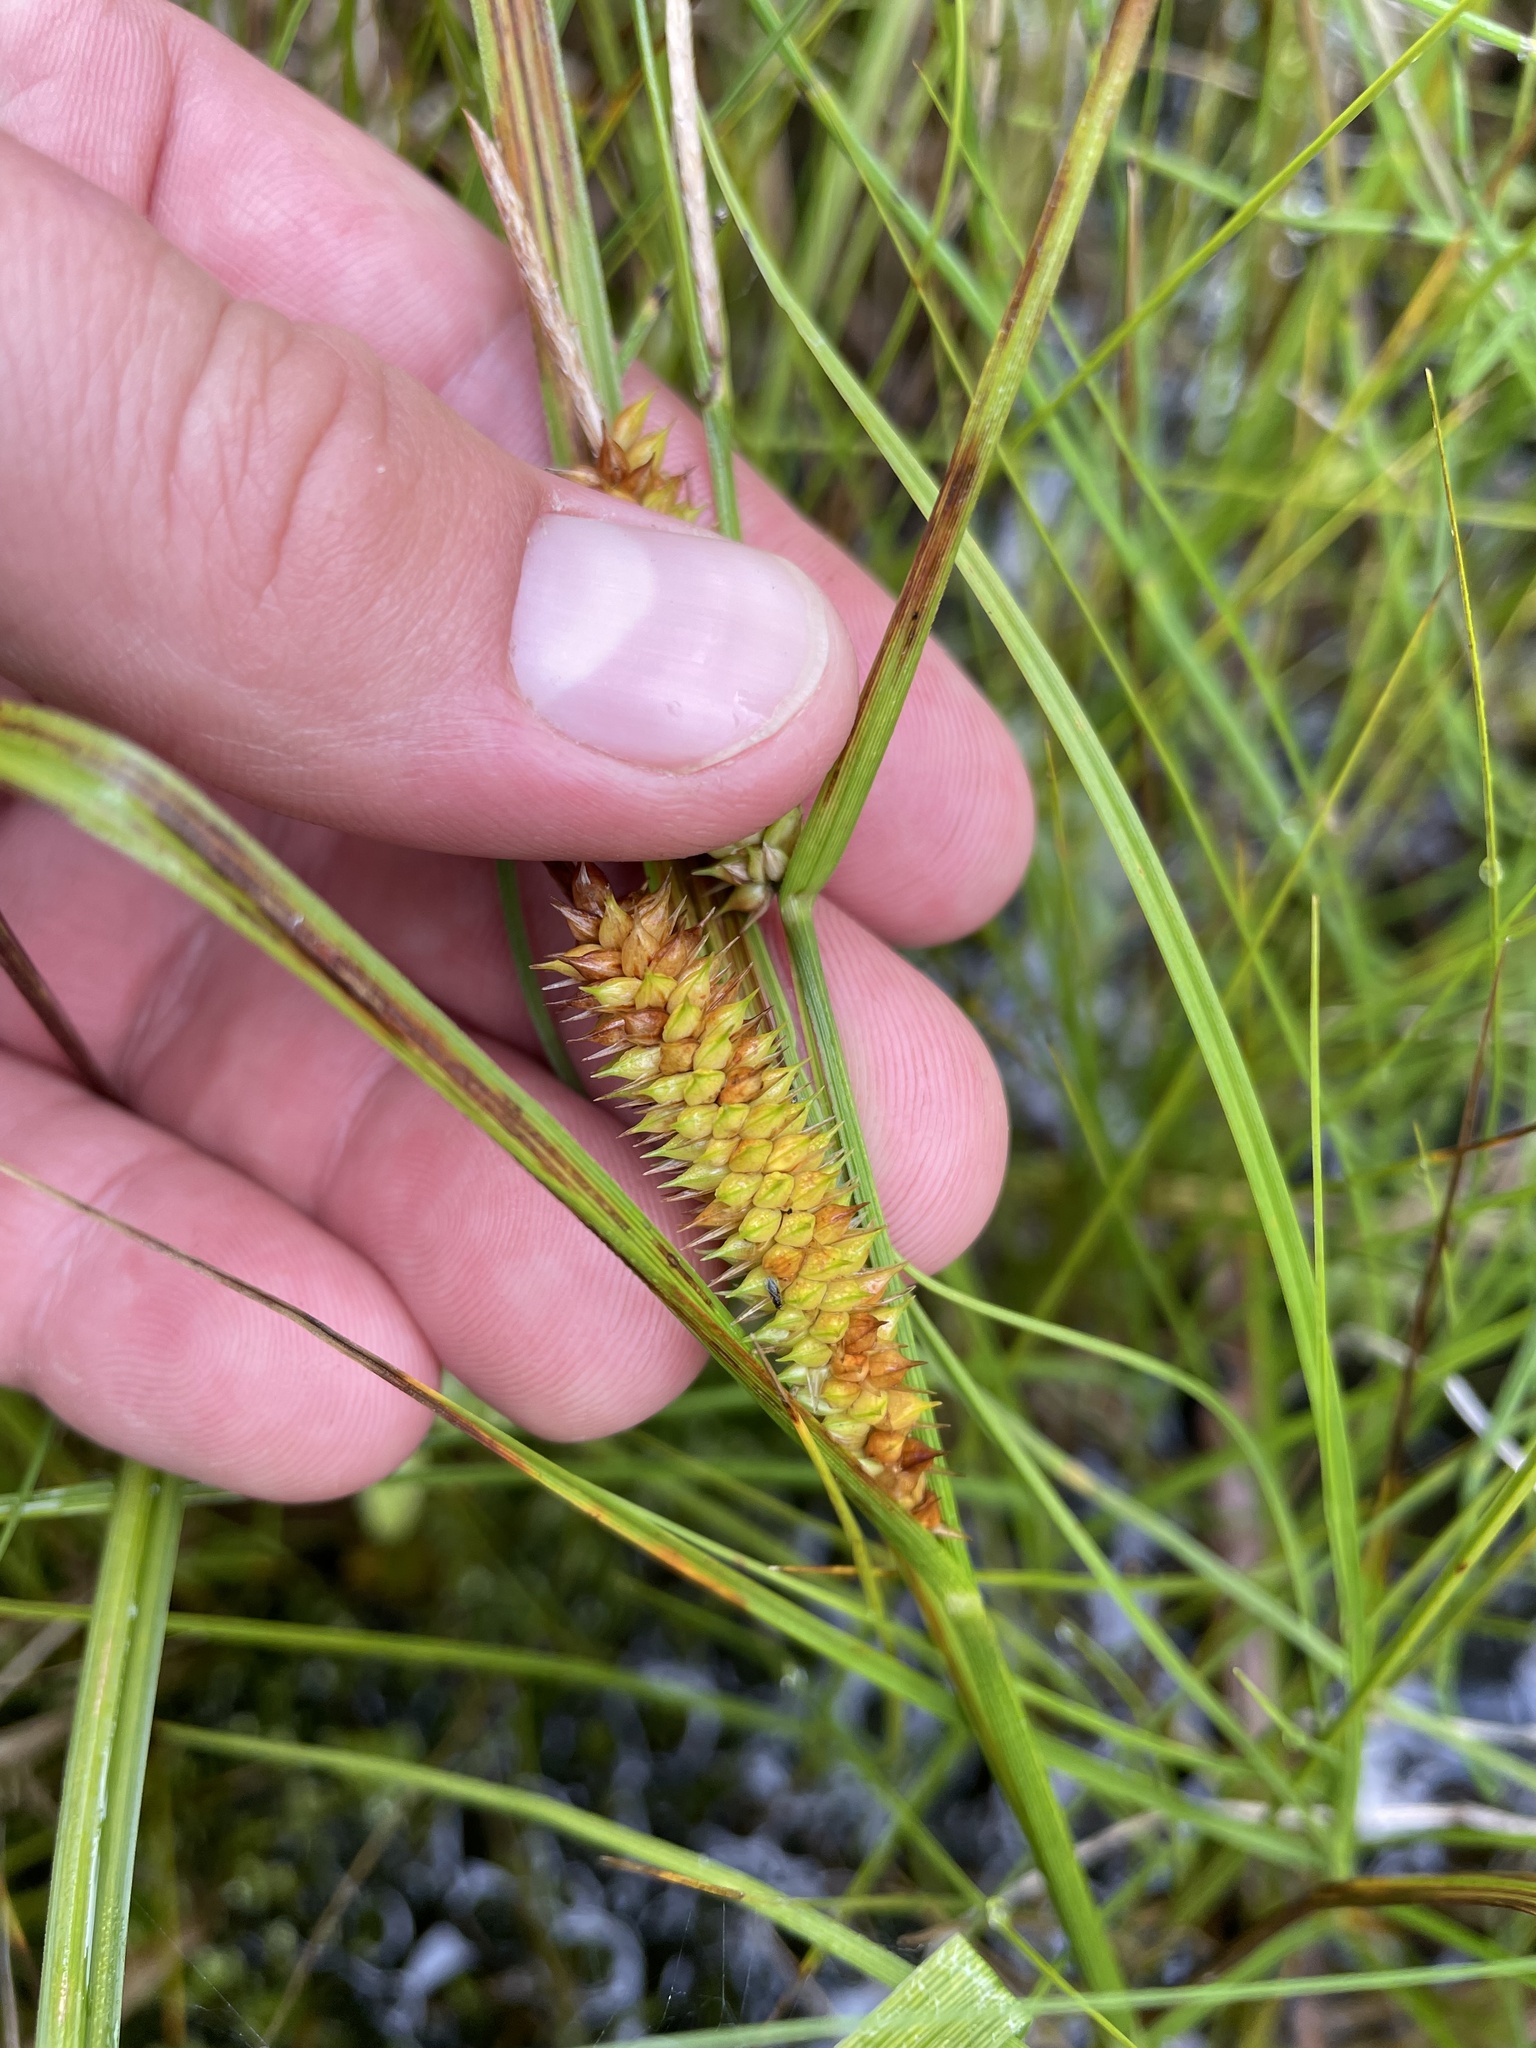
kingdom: Plantae
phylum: Tracheophyta
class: Liliopsida
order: Poales
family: Cyperaceae
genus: Carex
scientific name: Carex utriculata
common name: Beaked sedge
